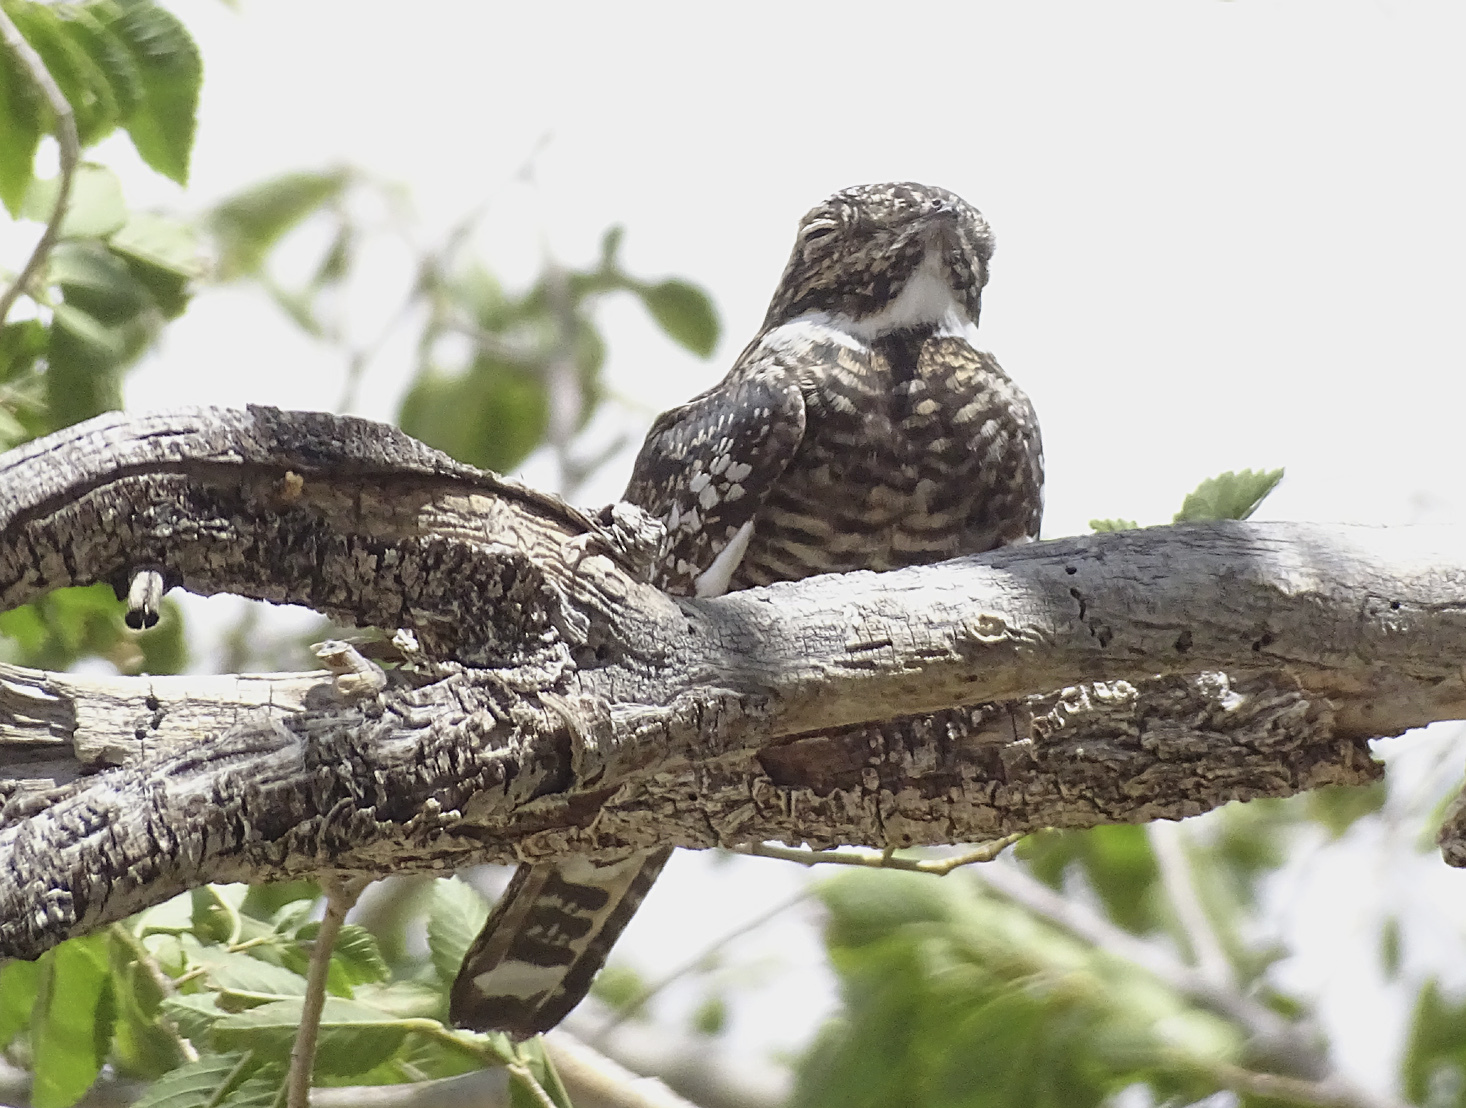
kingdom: Animalia
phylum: Chordata
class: Aves
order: Caprimulgiformes
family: Caprimulgidae
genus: Chordeiles
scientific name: Chordeiles minor
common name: Common nighthawk
